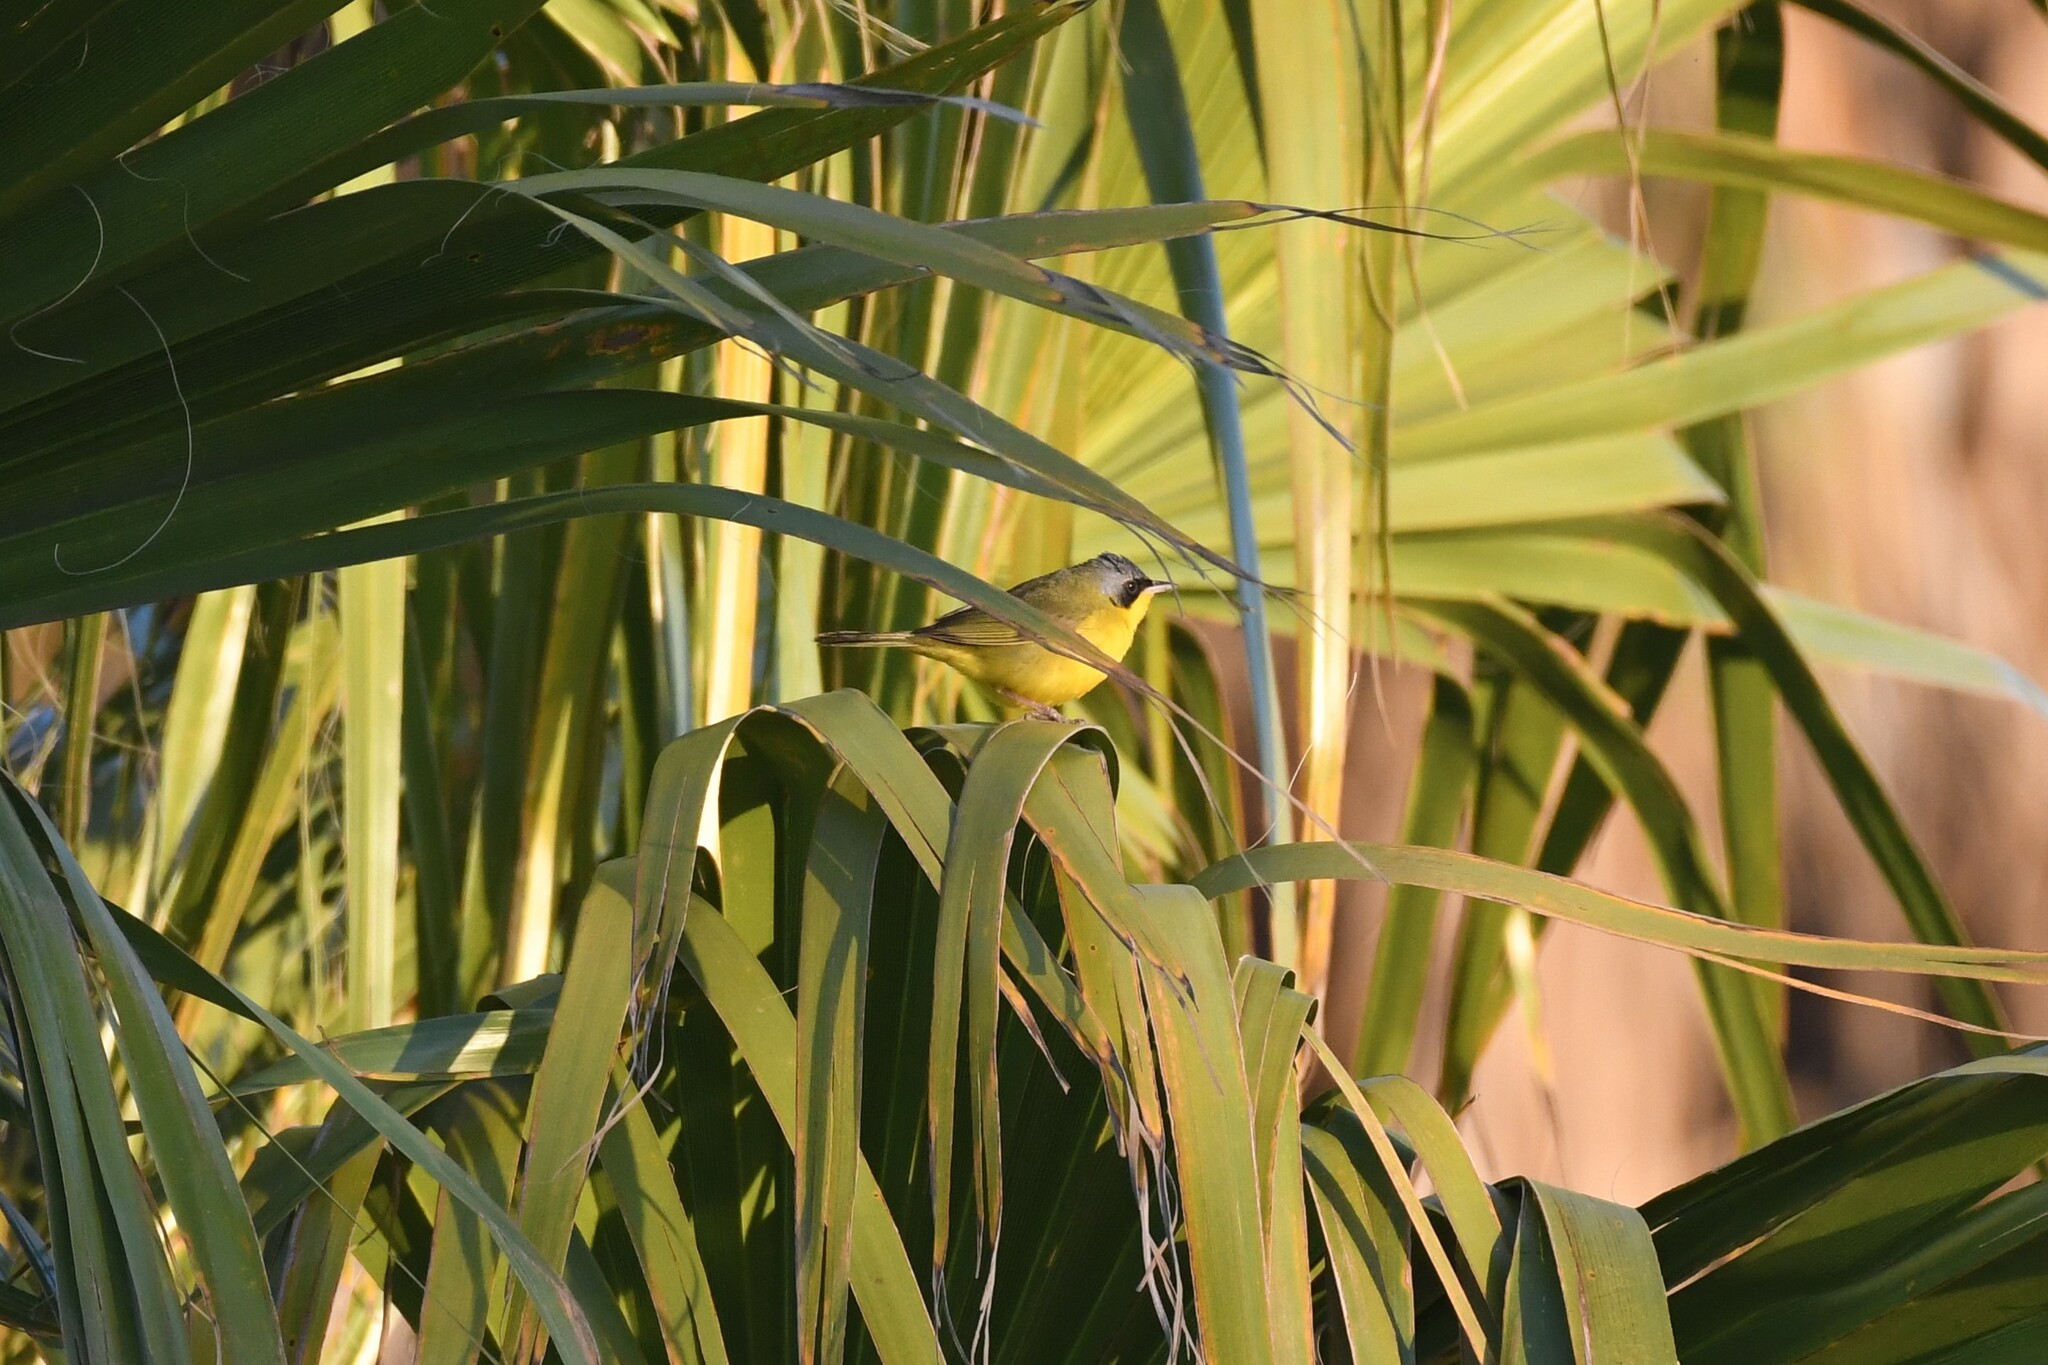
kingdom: Animalia
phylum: Chordata
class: Aves
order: Passeriformes
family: Parulidae
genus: Geothlypis
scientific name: Geothlypis velata
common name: Southern yellowthroat
